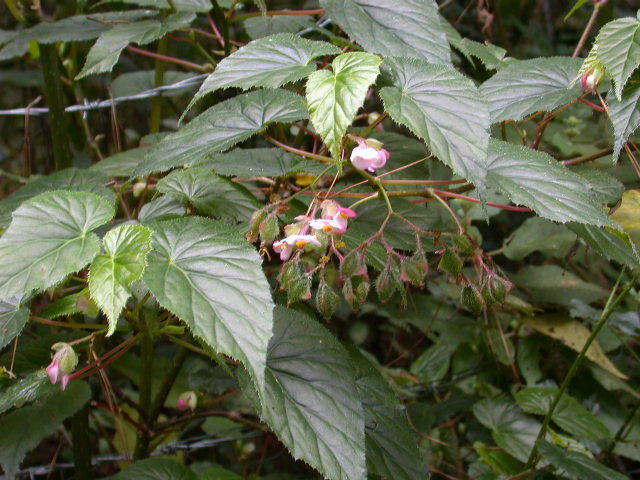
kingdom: Plantae
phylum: Tracheophyta
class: Magnoliopsida
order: Cucurbitales
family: Begoniaceae
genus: Begonia
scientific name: Begonia oaxacana
